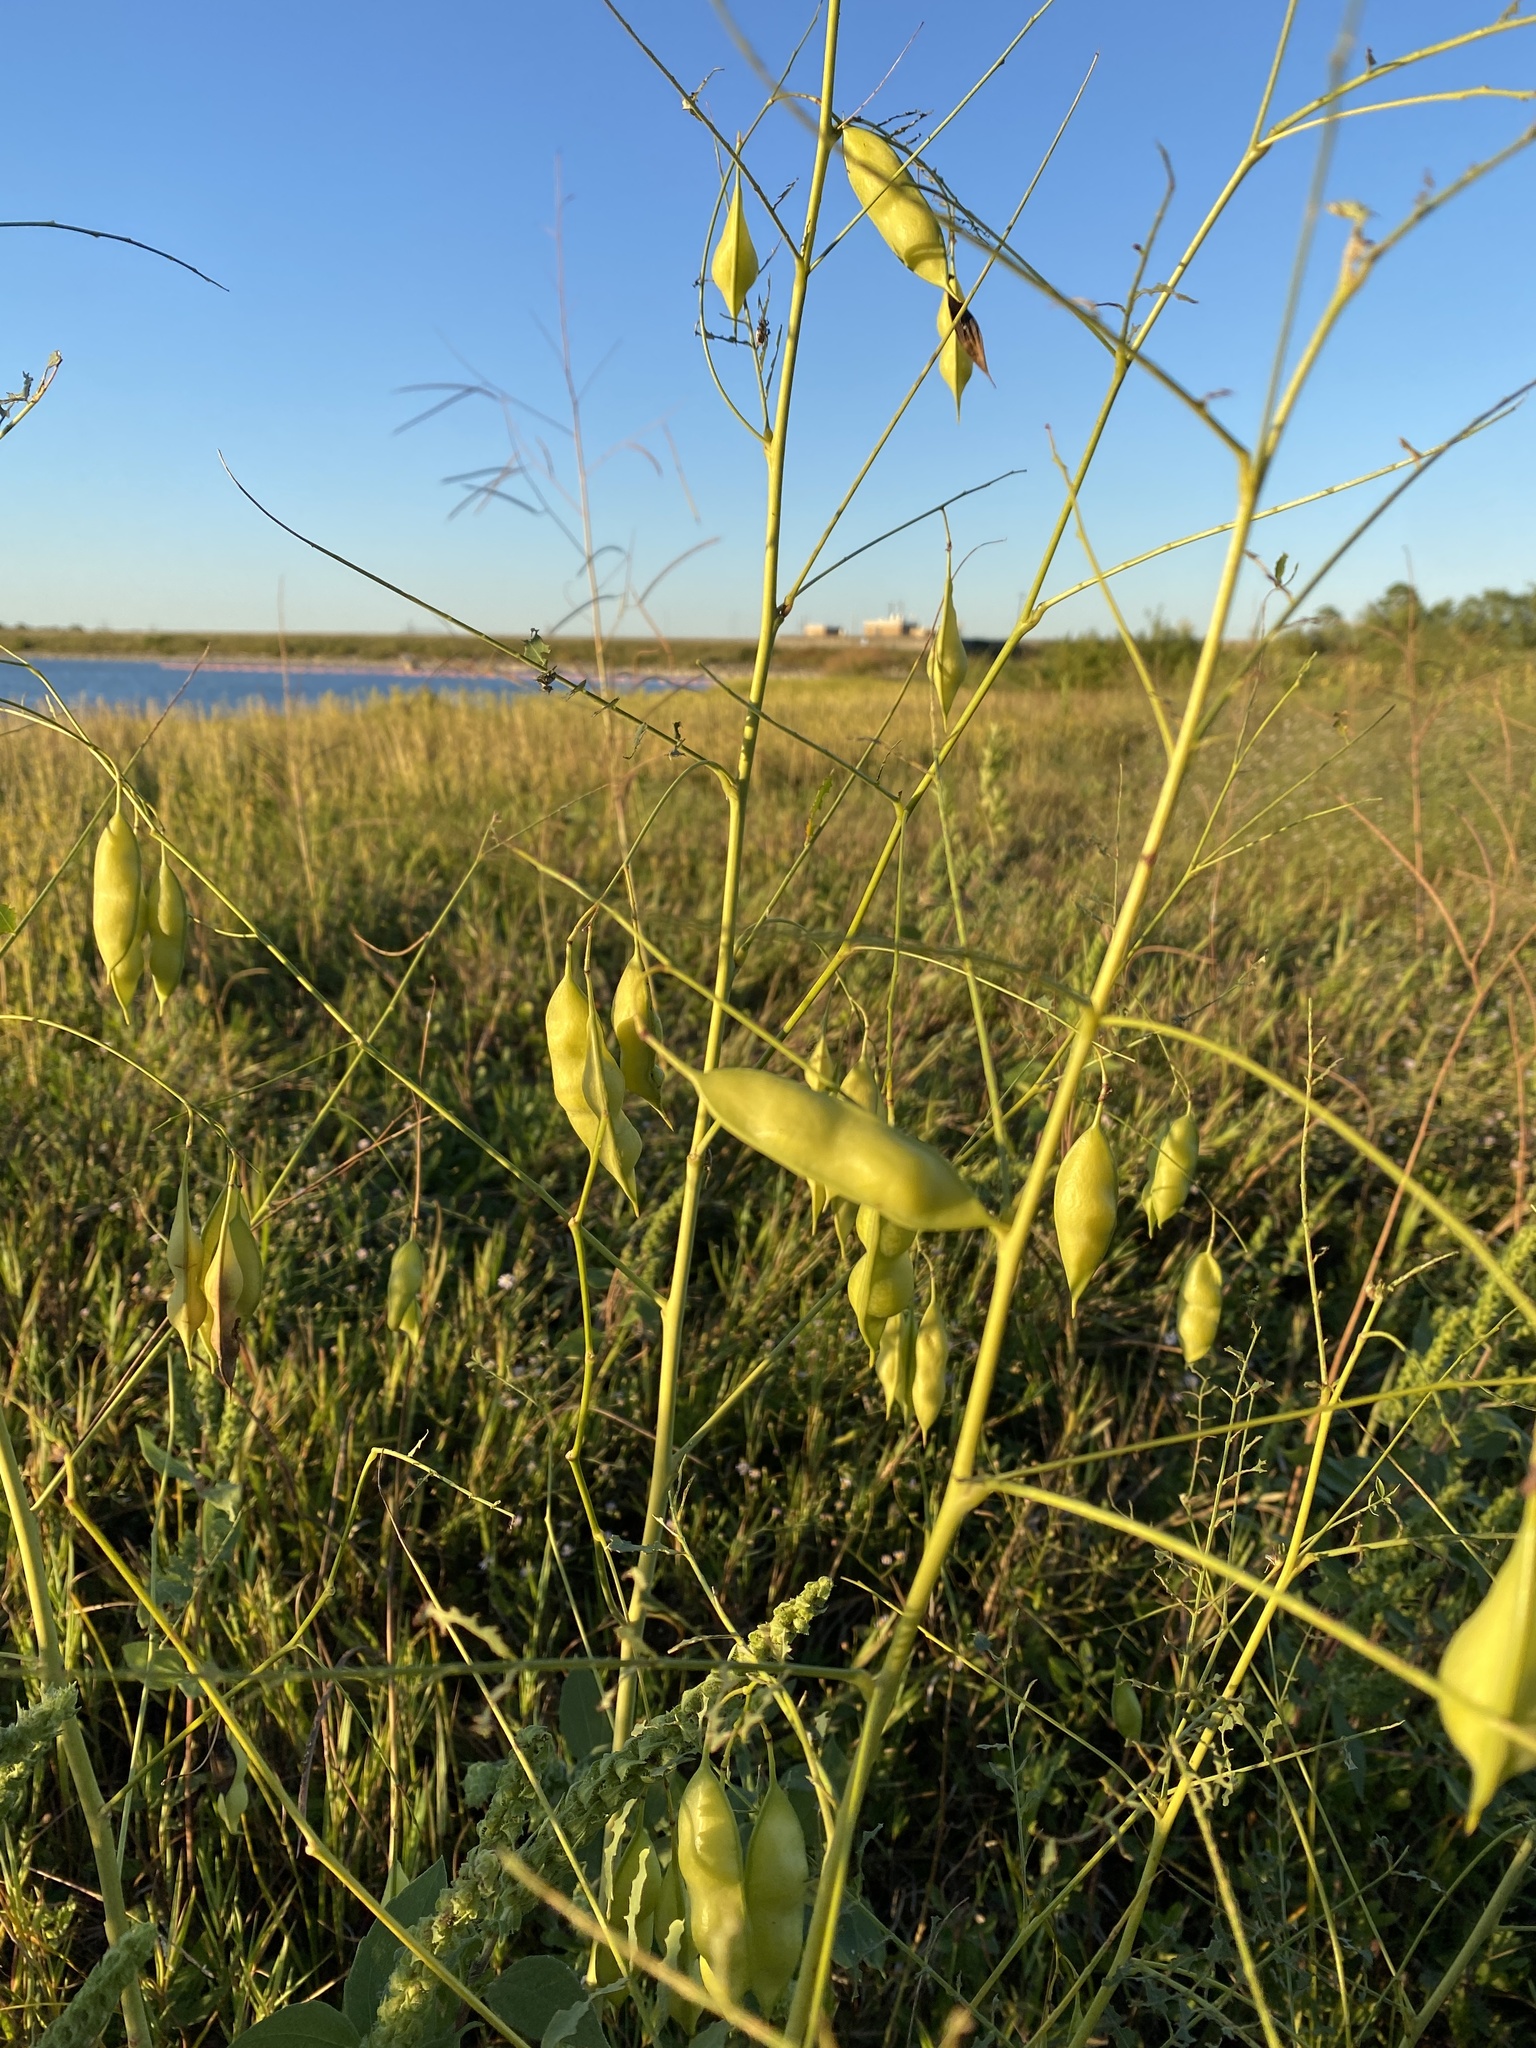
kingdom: Plantae
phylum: Tracheophyta
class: Magnoliopsida
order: Fabales
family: Fabaceae
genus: Sesbania
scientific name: Sesbania vesicaria
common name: Bagpod
